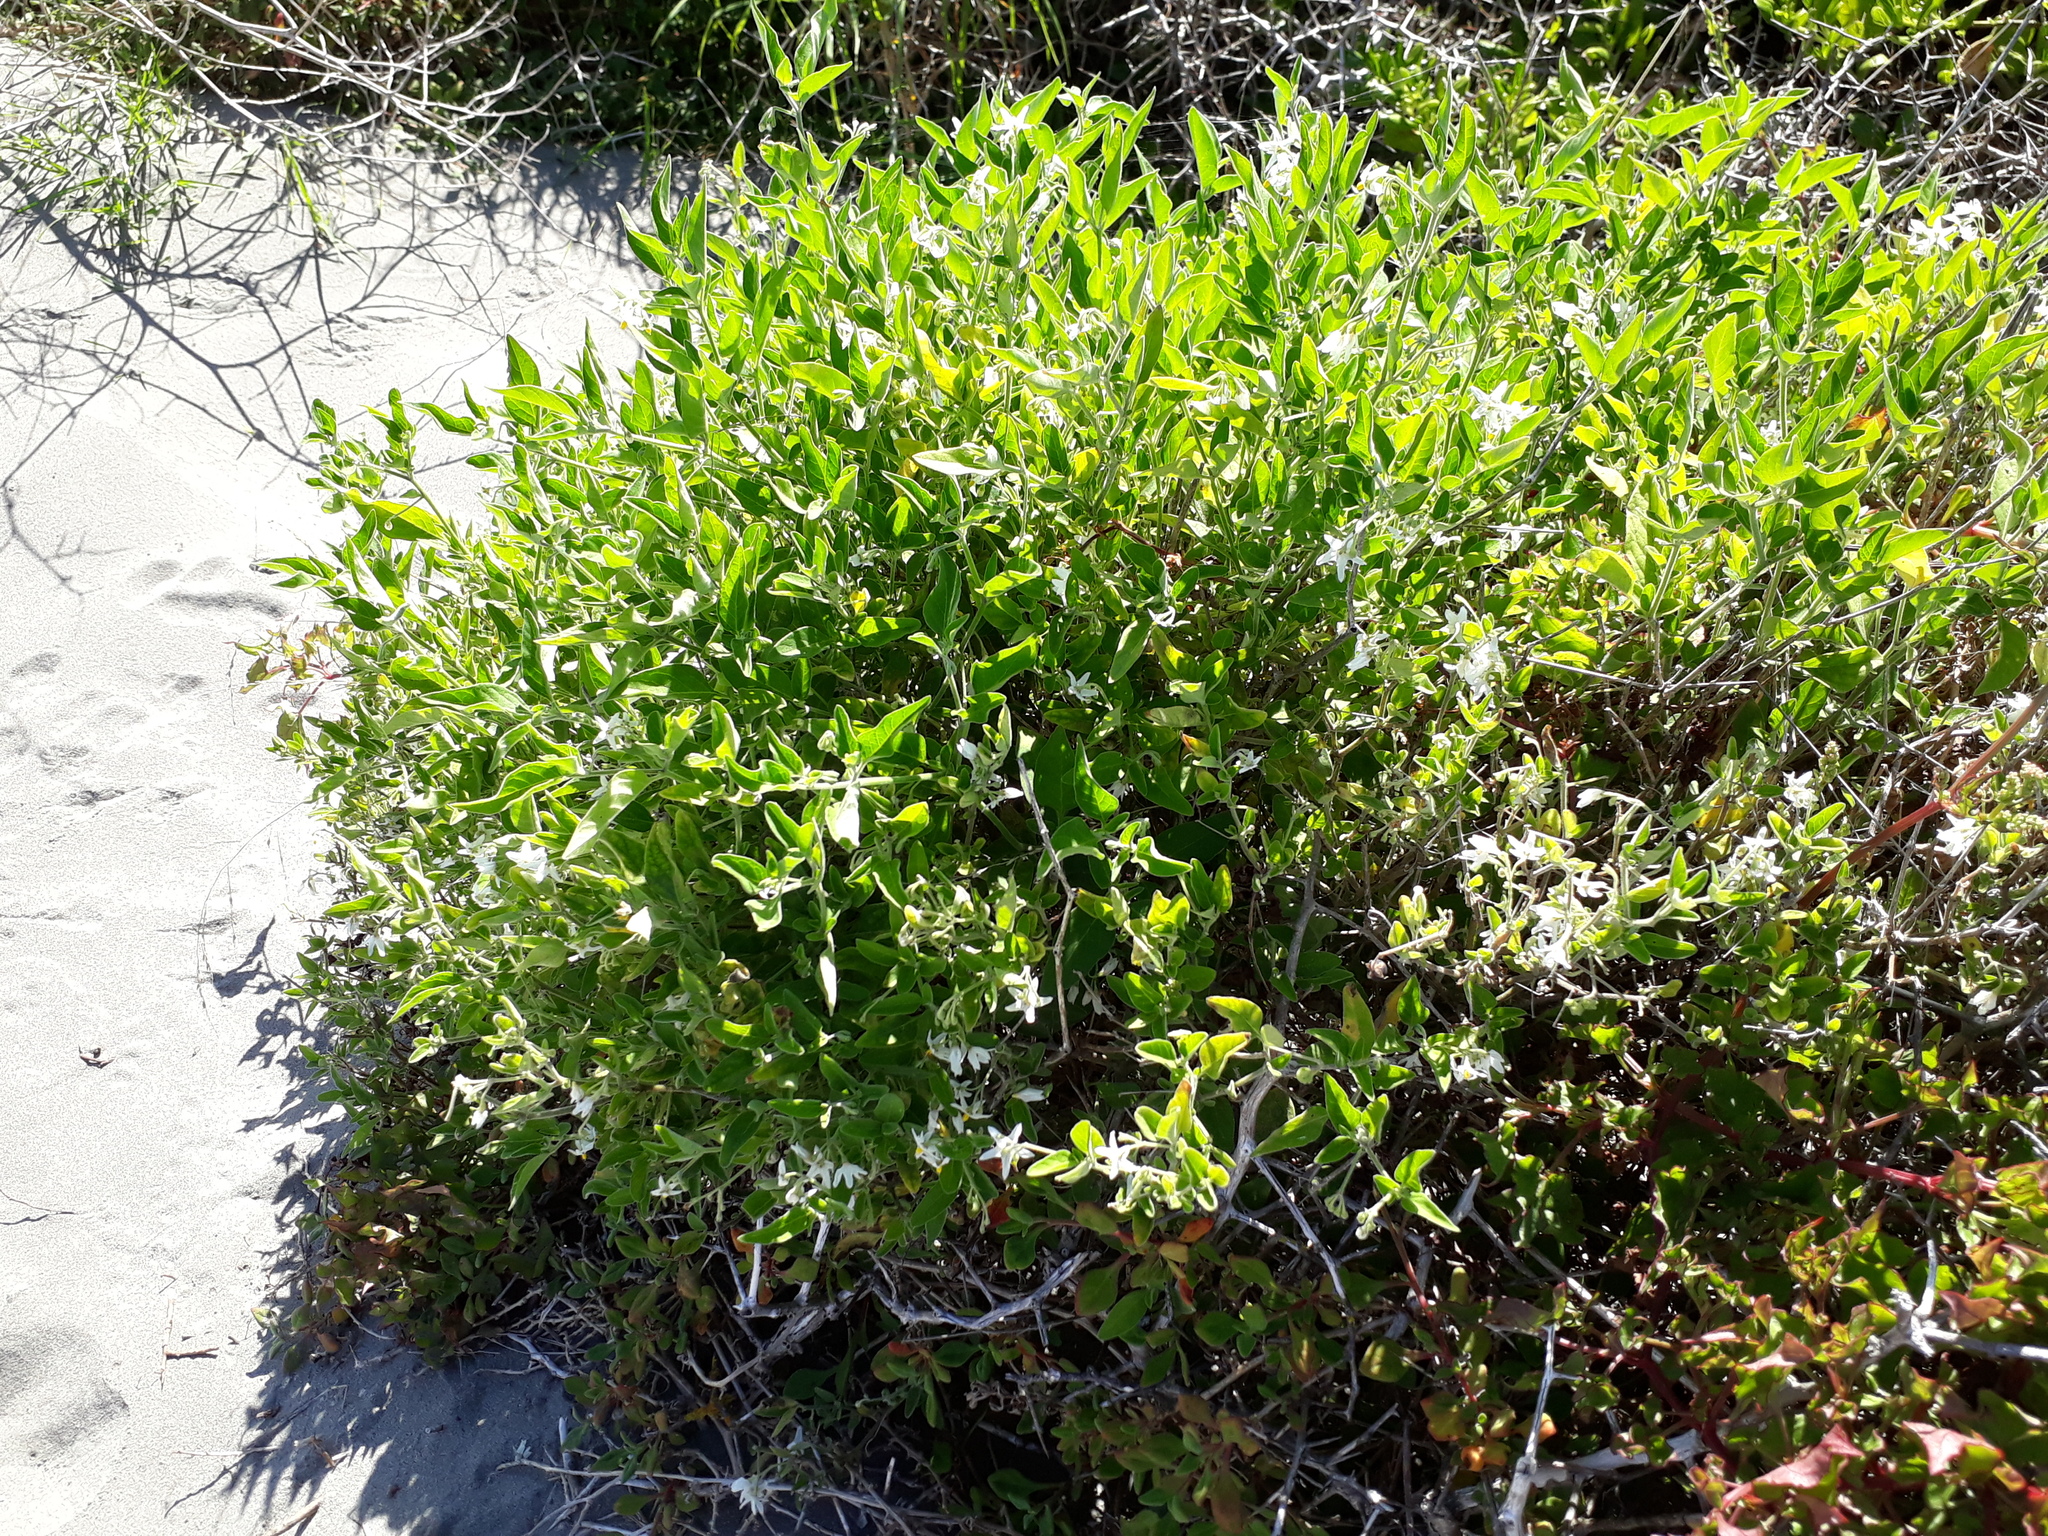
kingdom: Plantae
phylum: Tracheophyta
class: Magnoliopsida
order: Solanales
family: Solanaceae
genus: Solanum
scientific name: Solanum chenopodioides
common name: Tall nightshade
